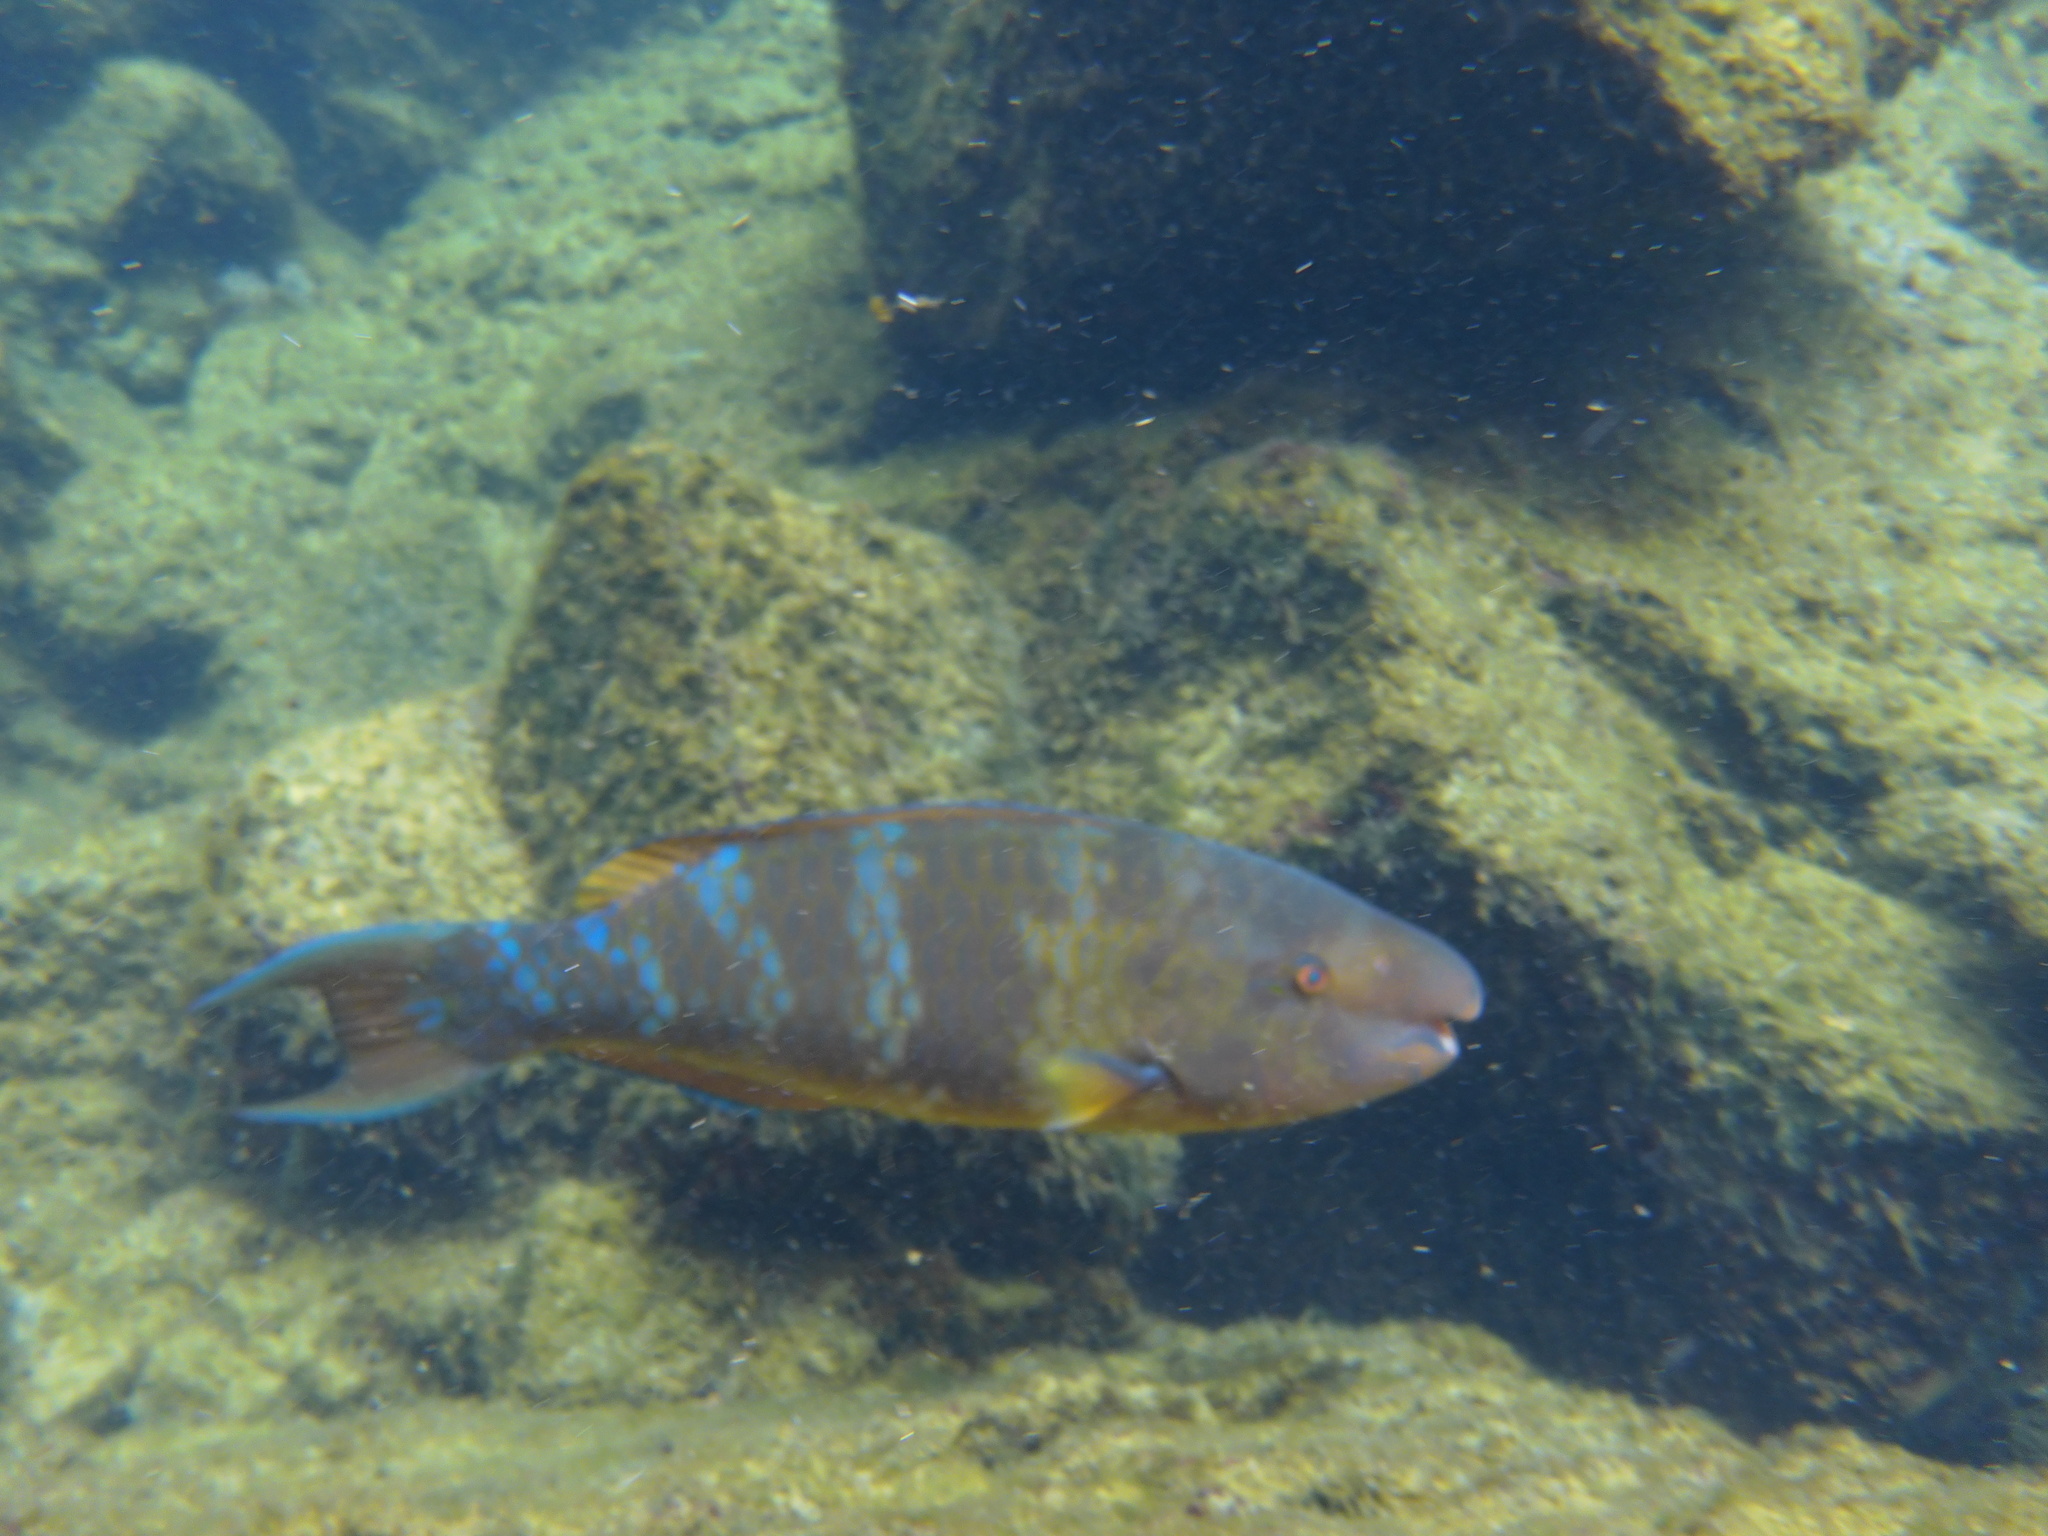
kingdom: Animalia
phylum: Chordata
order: Perciformes
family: Scaridae
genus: Scarus
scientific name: Scarus ghobban
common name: Blue-barred parrotfish
